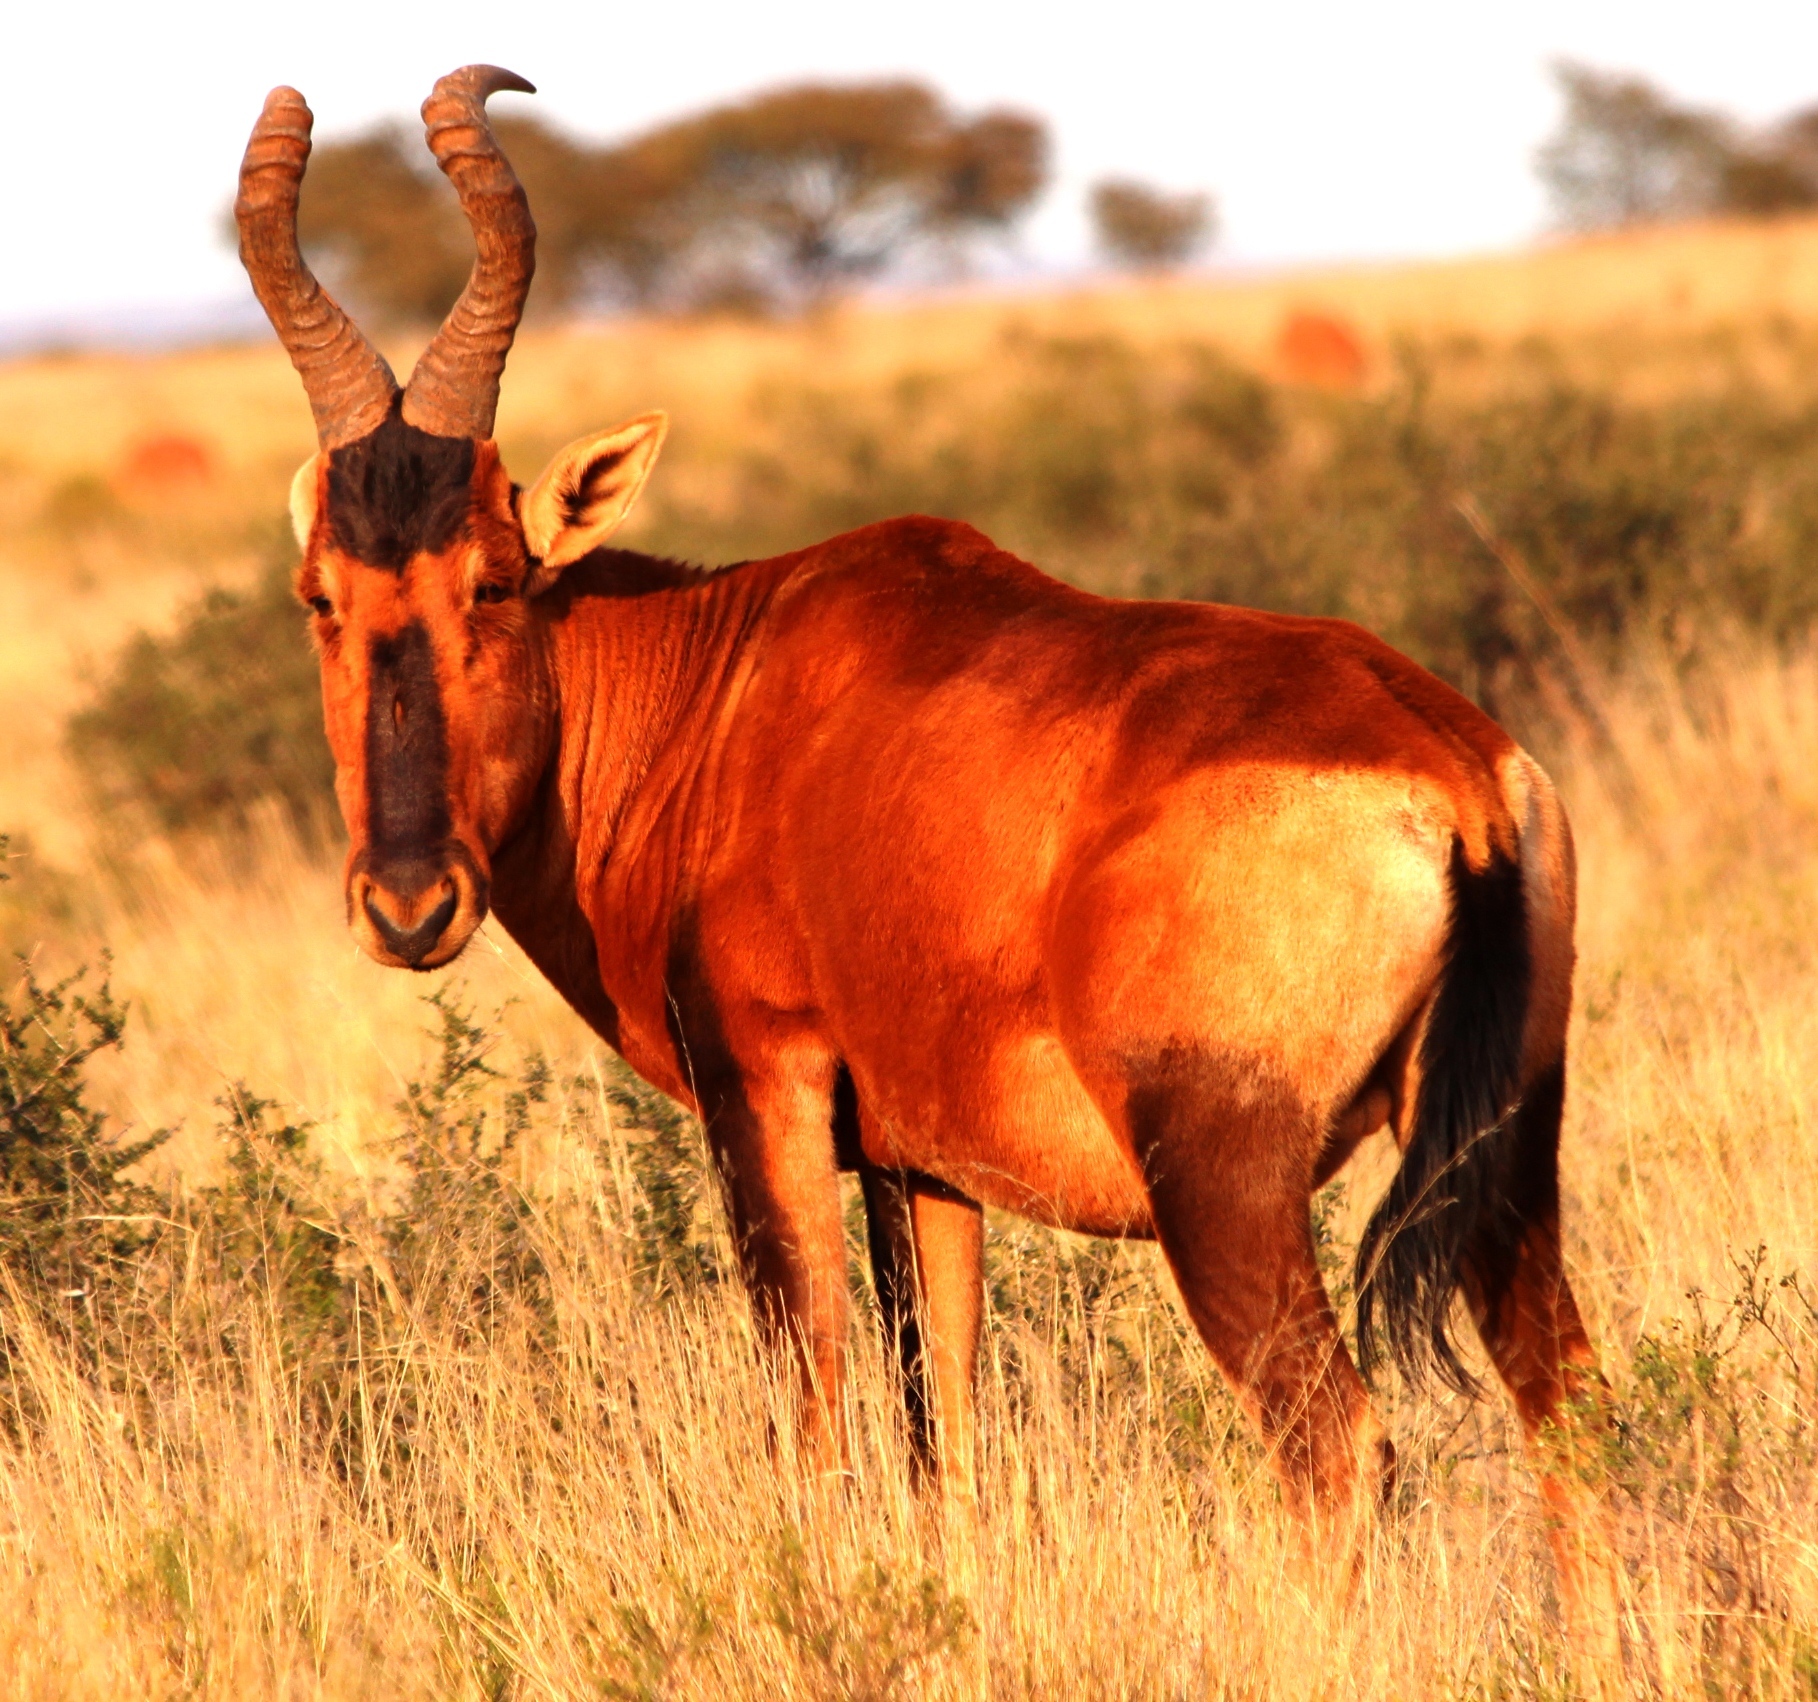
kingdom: Animalia
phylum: Chordata
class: Mammalia
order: Artiodactyla
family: Bovidae
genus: Alcelaphus
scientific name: Alcelaphus caama
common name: Red hartebeest
